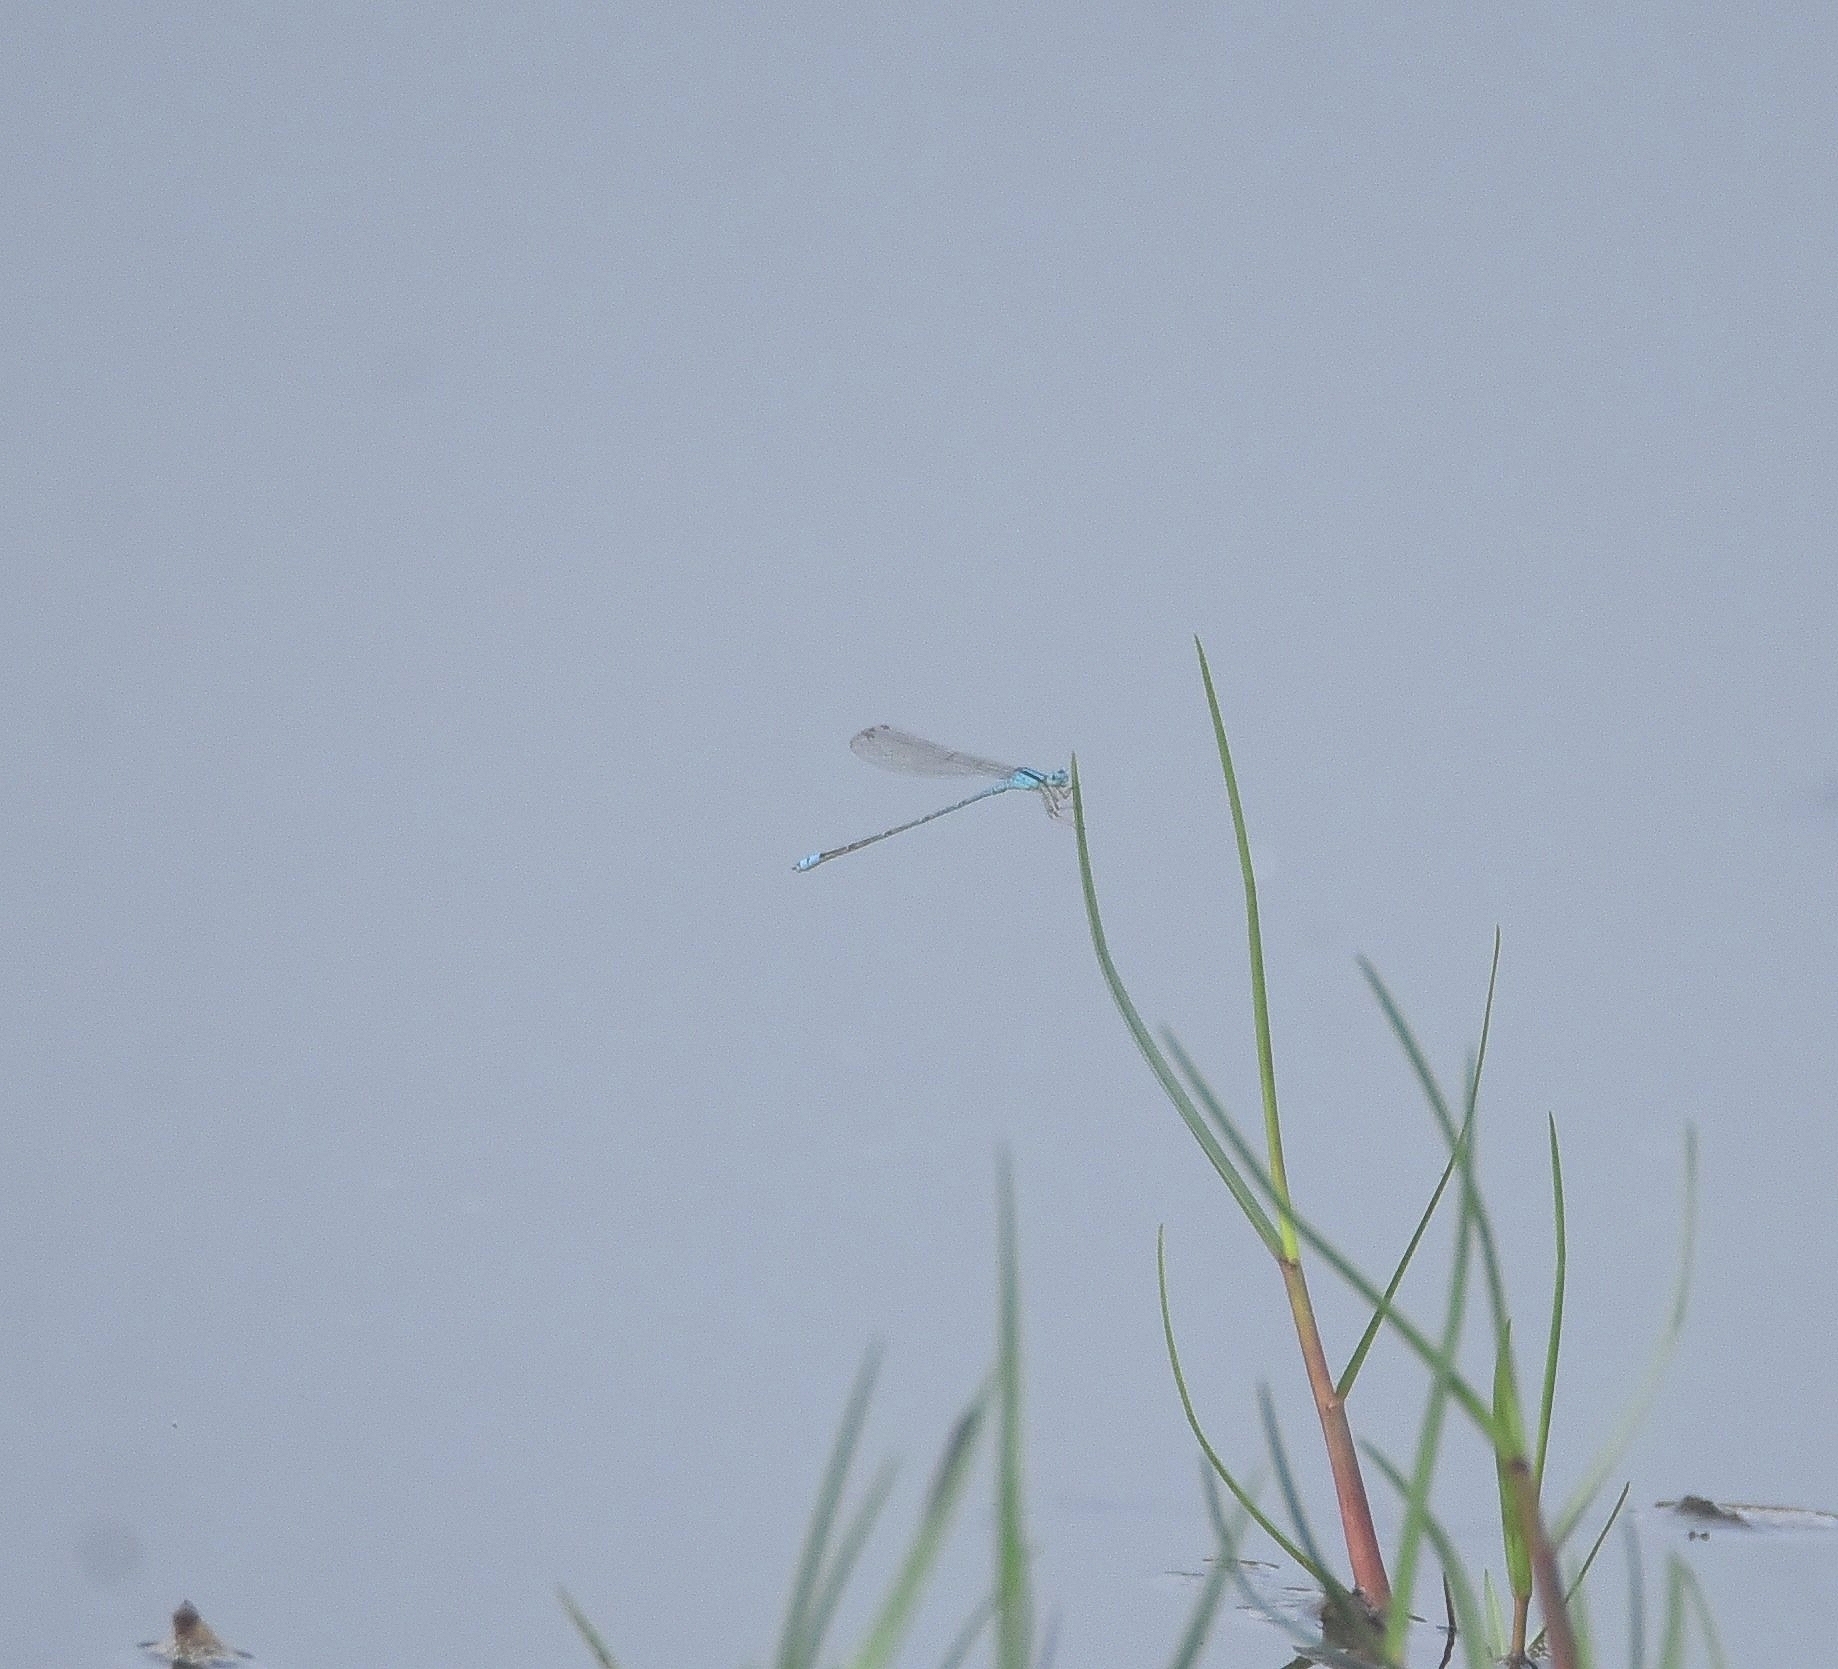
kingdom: Animalia
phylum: Arthropoda
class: Insecta
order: Odonata
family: Coenagrionidae
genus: Pseudagrion
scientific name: Pseudagrion microcephalum
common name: Blue riverdamsel
